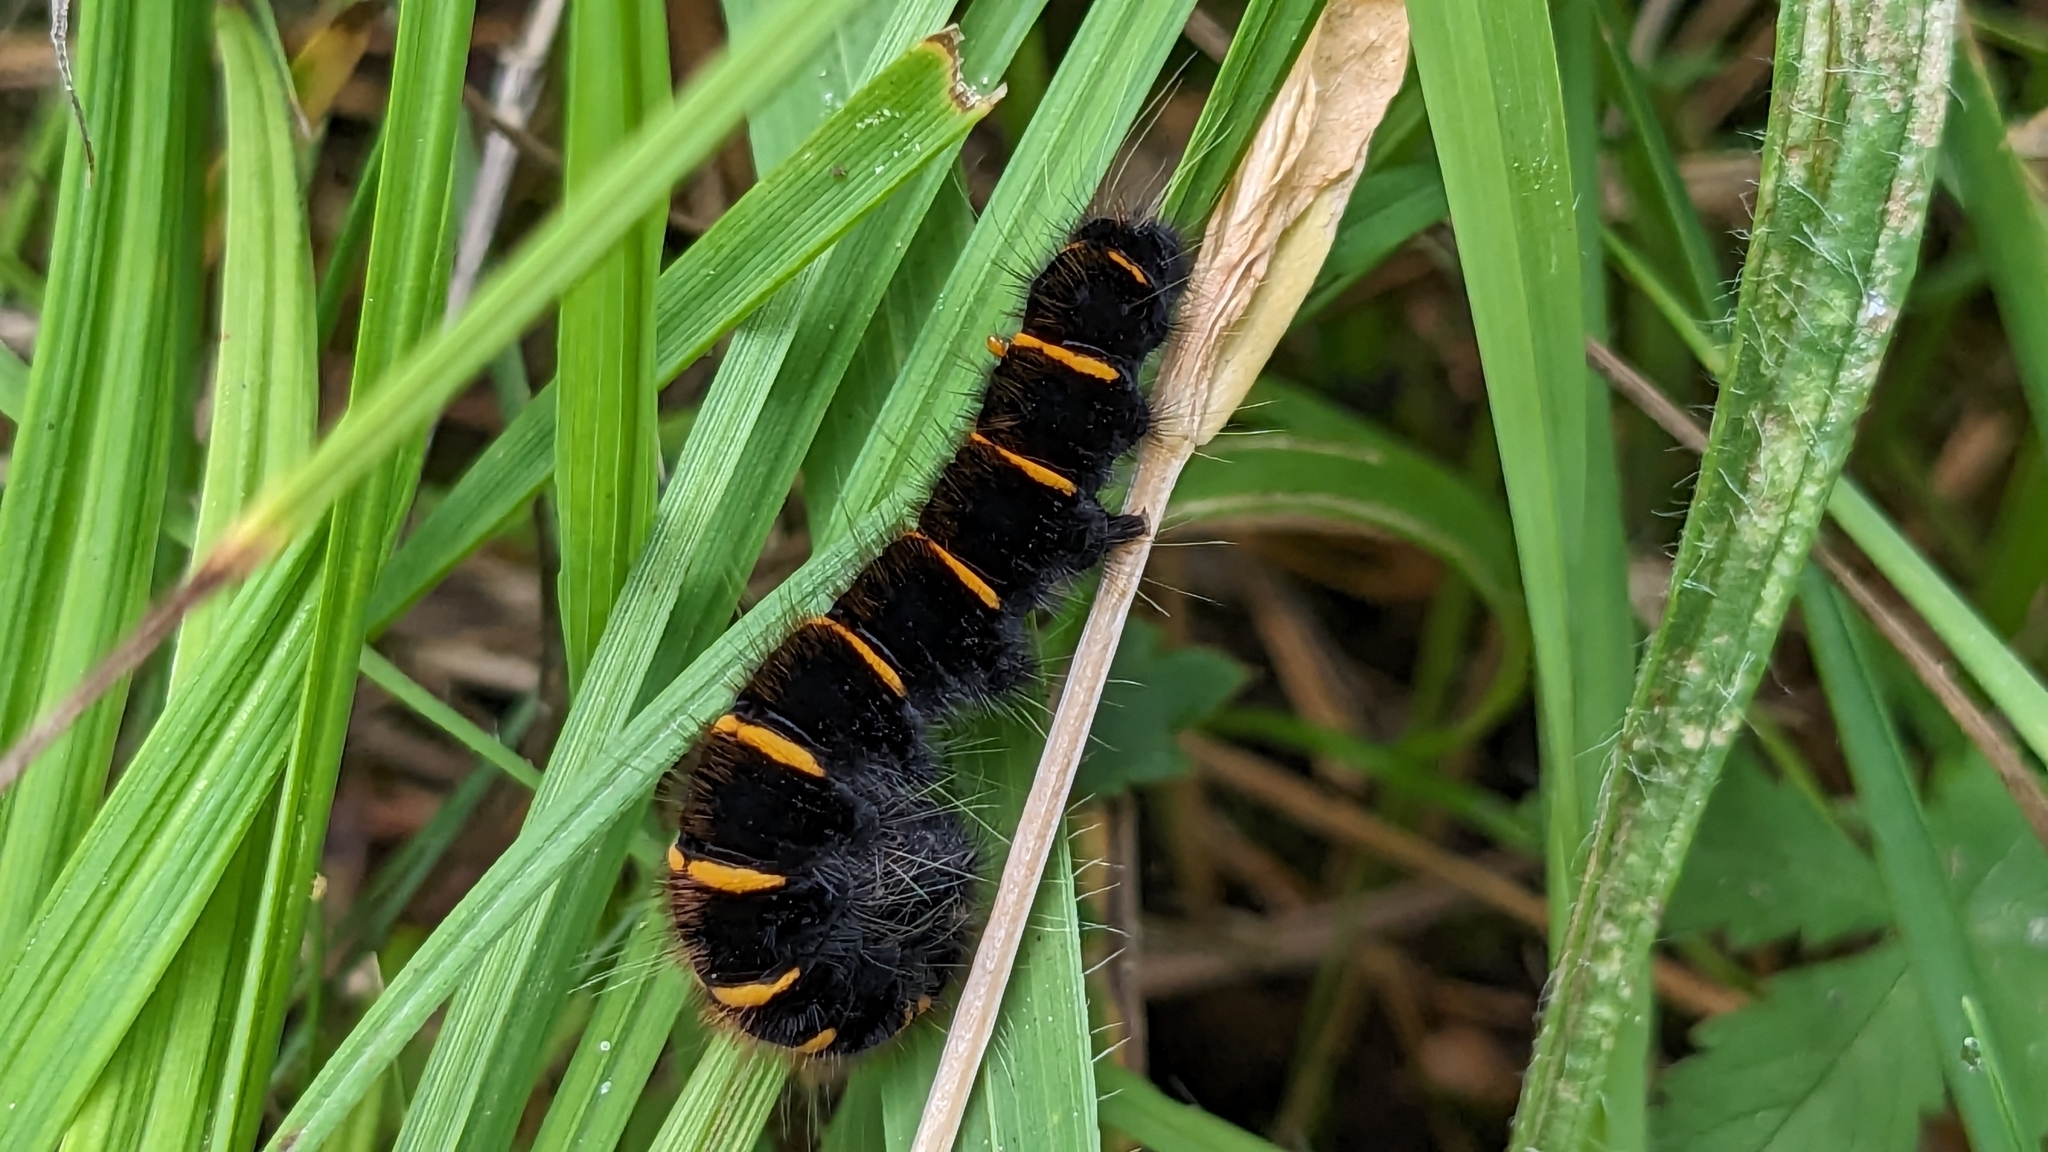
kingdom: Animalia
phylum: Arthropoda
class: Insecta
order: Lepidoptera
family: Lasiocampidae
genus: Macrothylacia
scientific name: Macrothylacia rubi
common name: Fox moth
